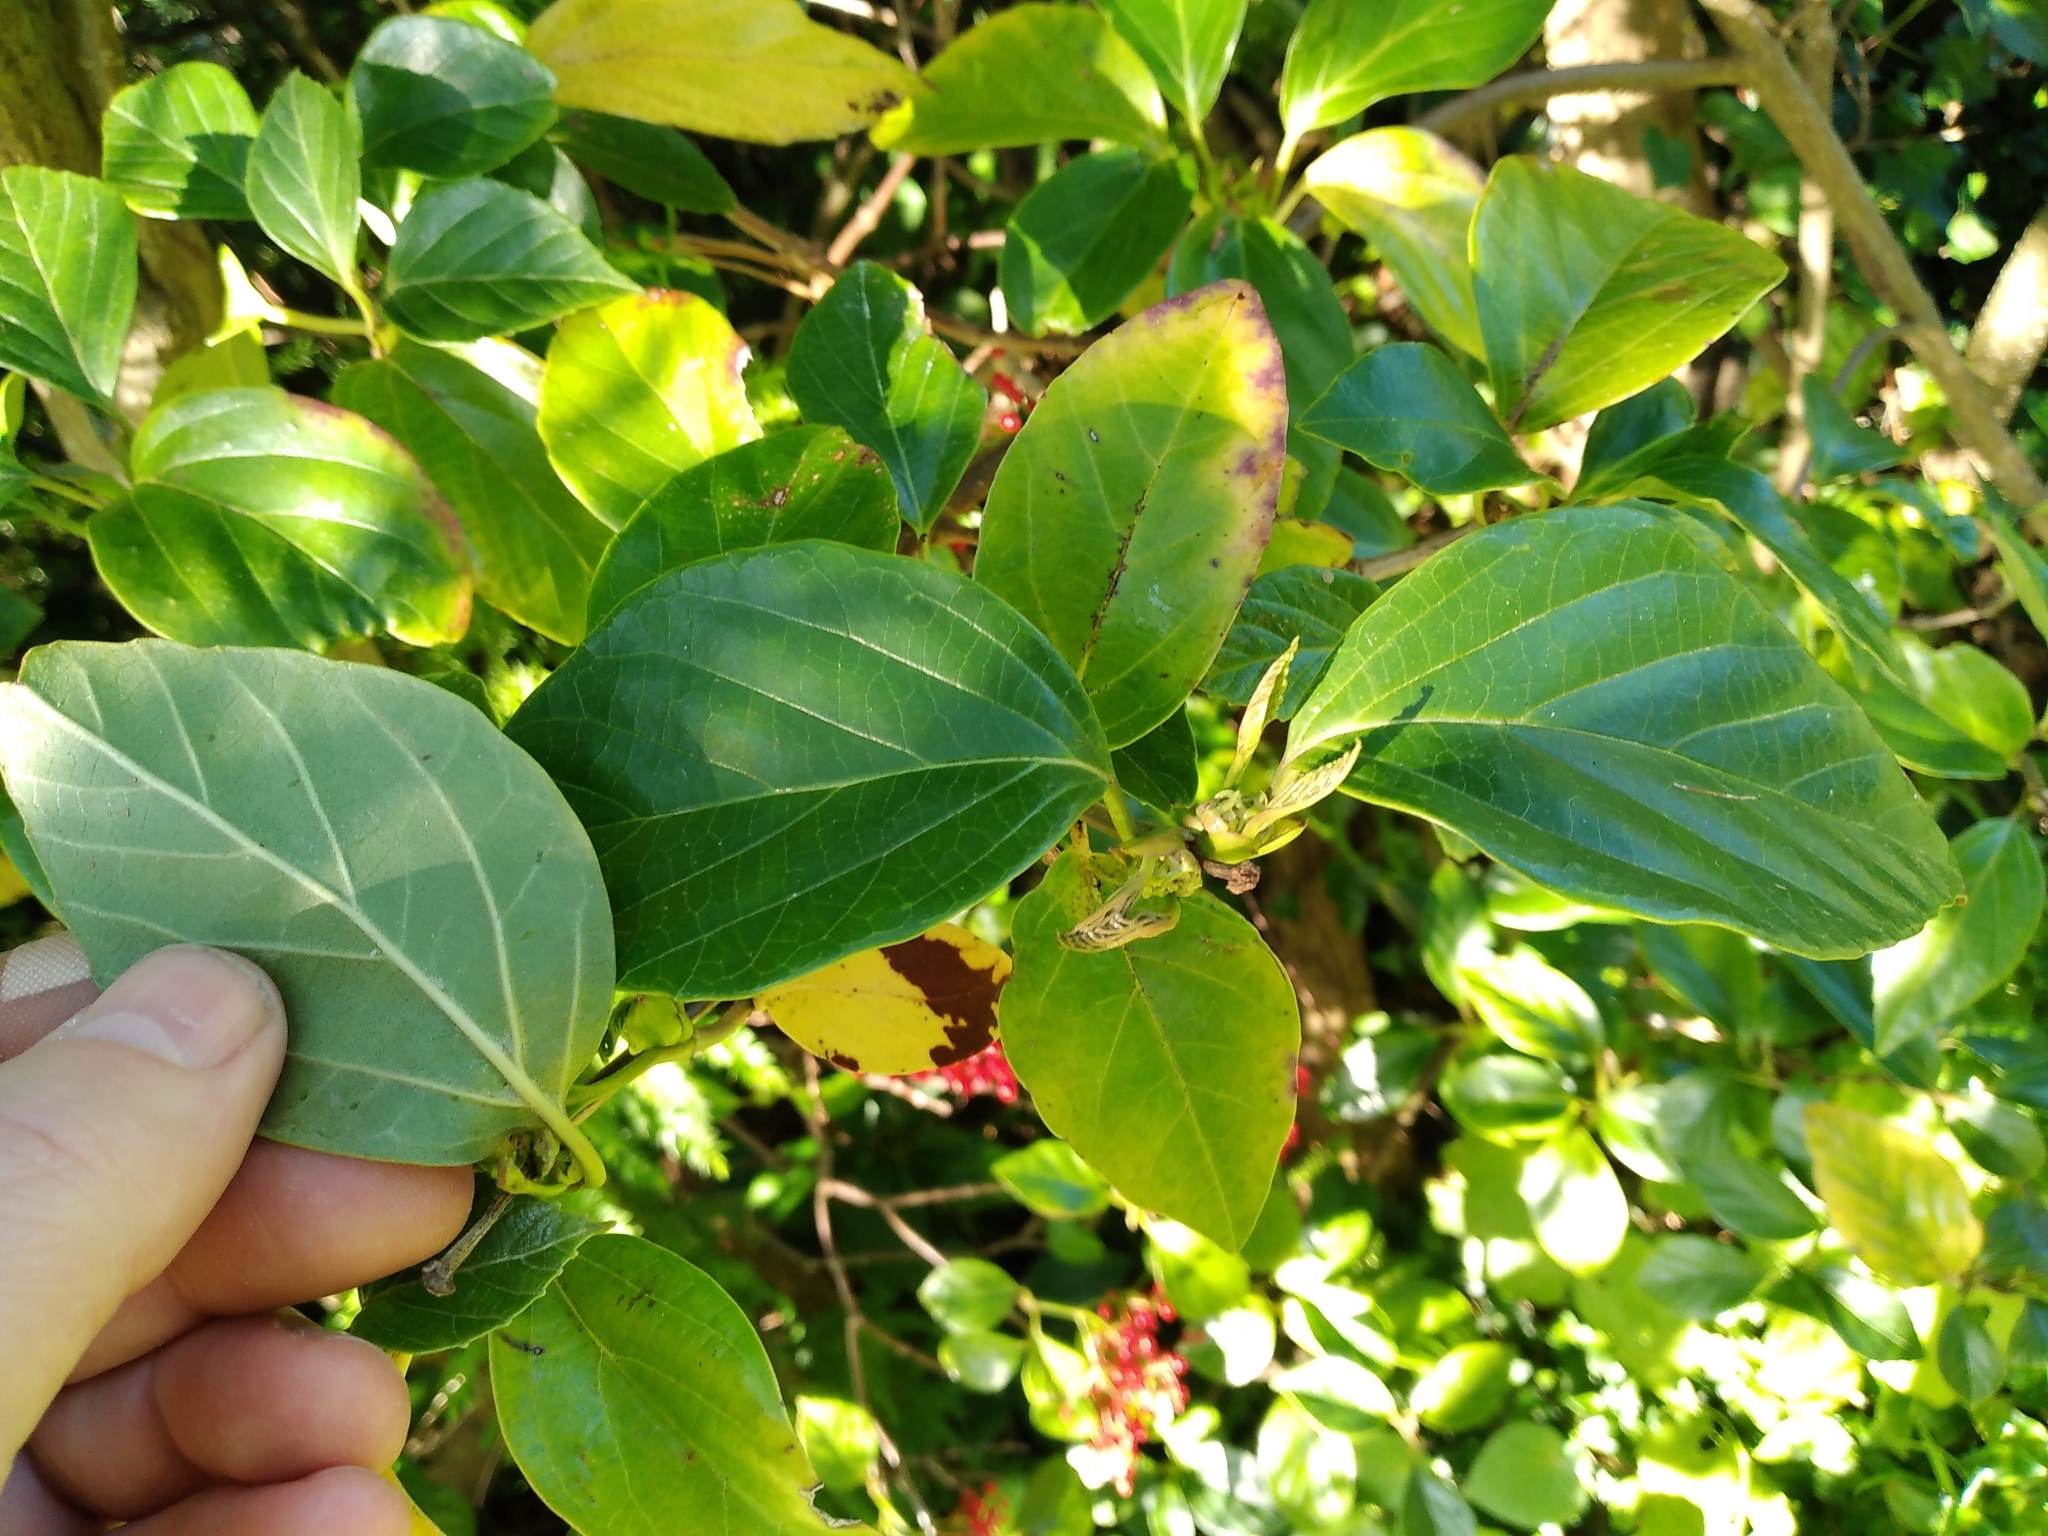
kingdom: Plantae
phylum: Tracheophyta
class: Magnoliopsida
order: Dipsacales
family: Viburnaceae
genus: Viburnum
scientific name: Viburnum japonicum
